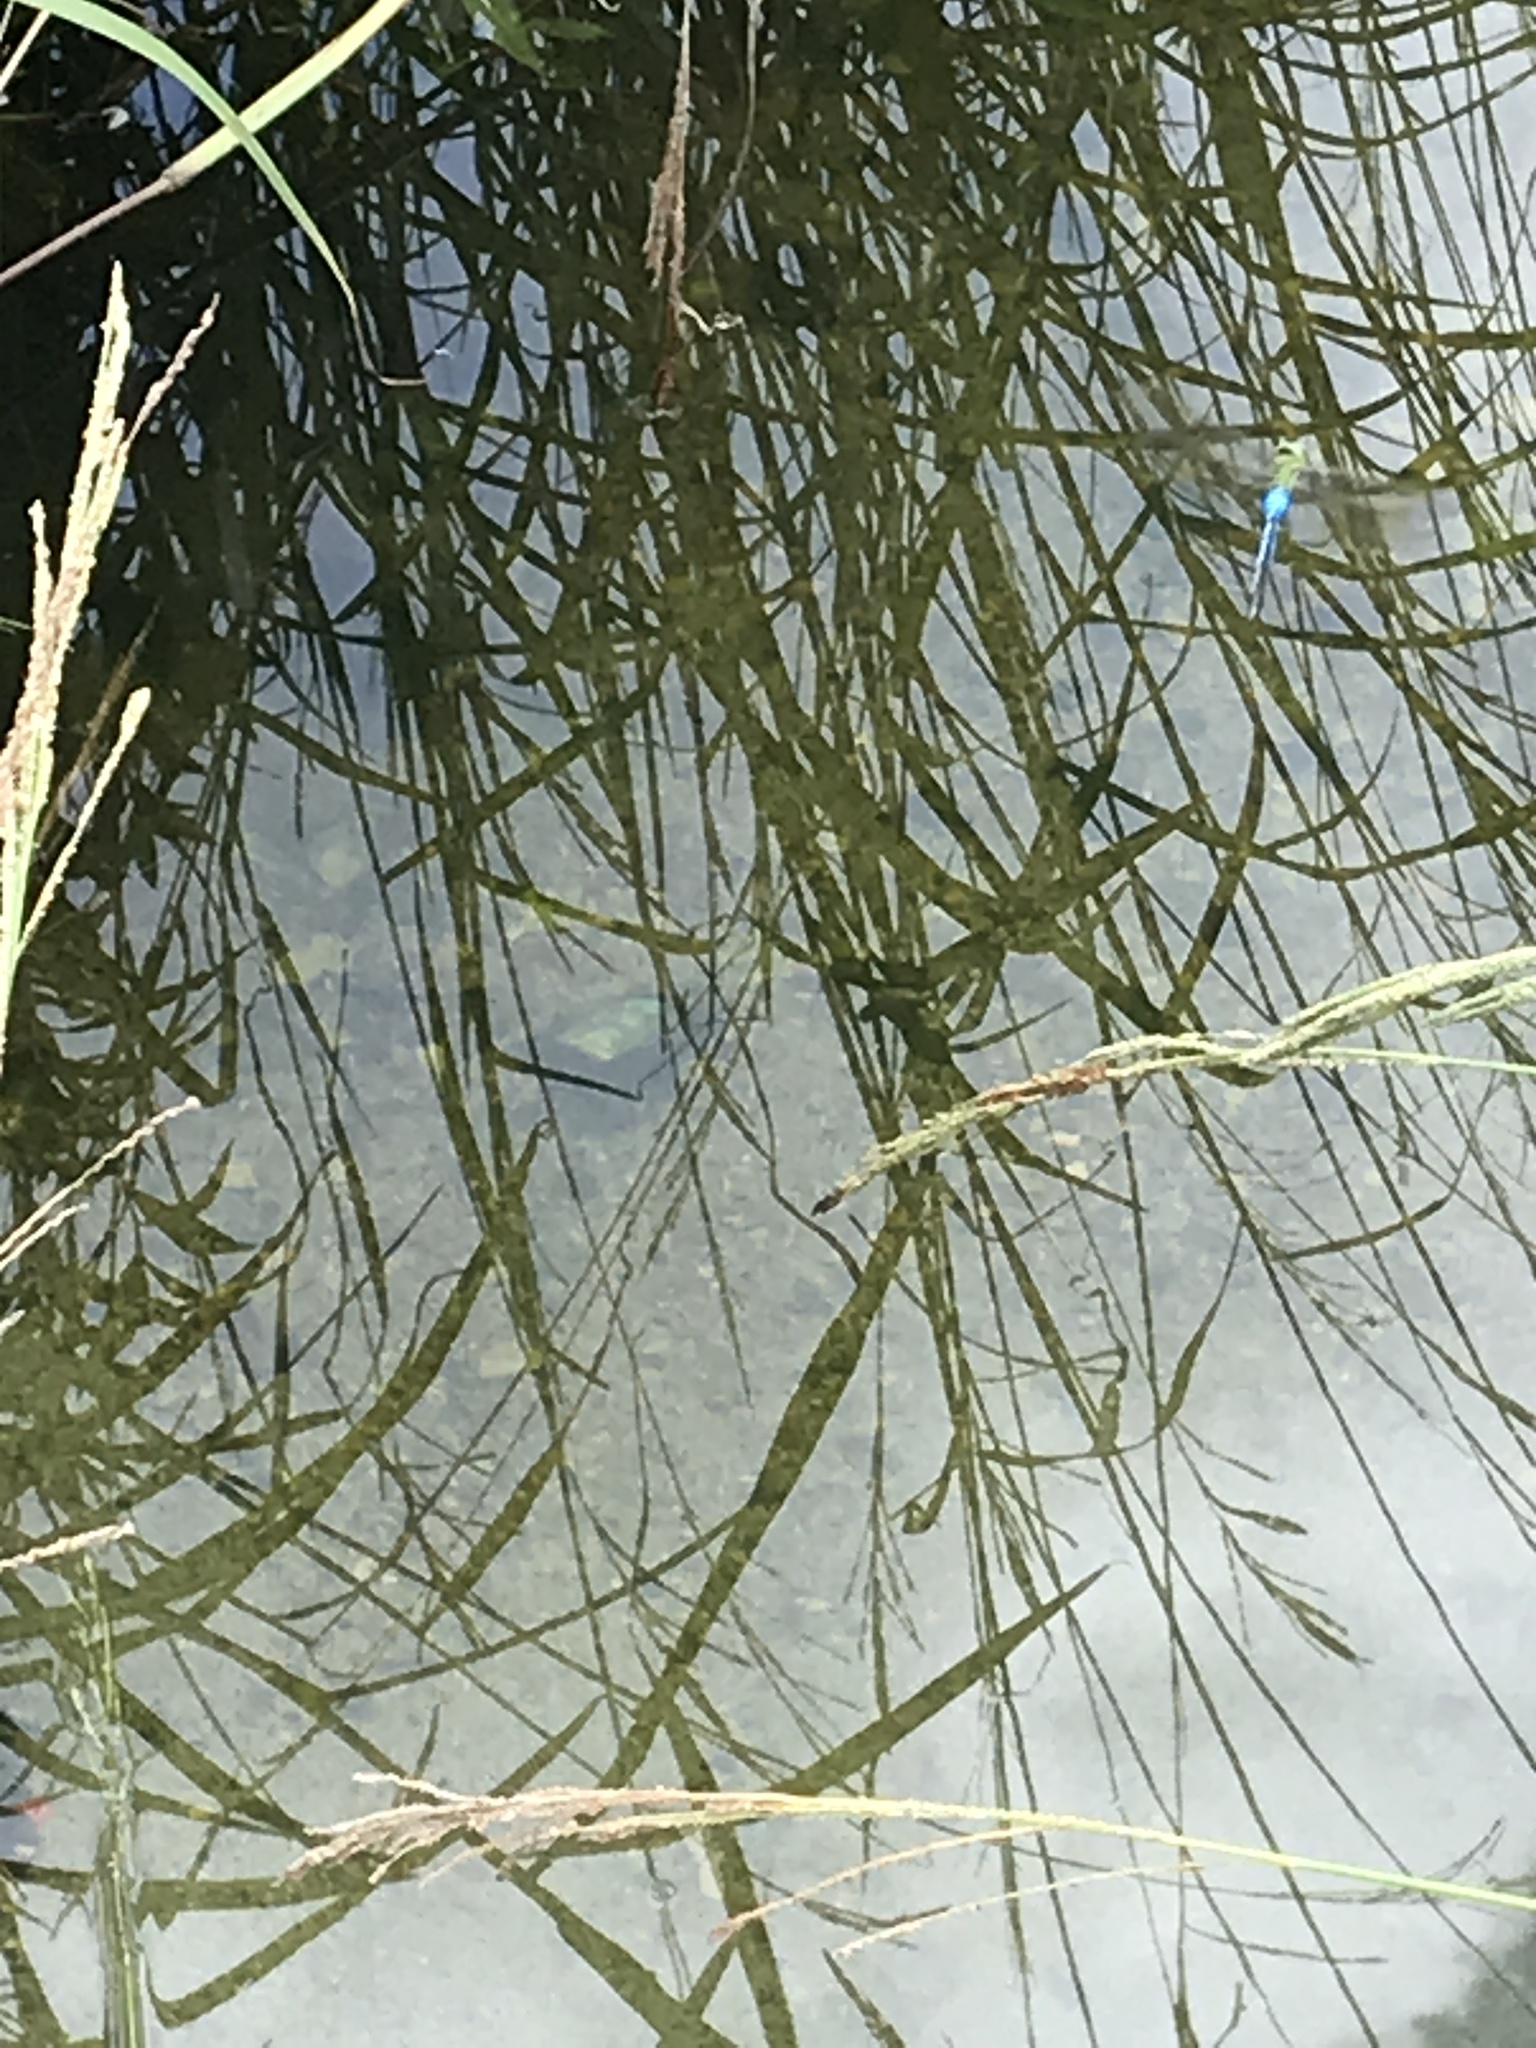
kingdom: Animalia
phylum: Arthropoda
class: Insecta
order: Odonata
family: Aeshnidae
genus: Anax
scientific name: Anax junius
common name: Common green darner
